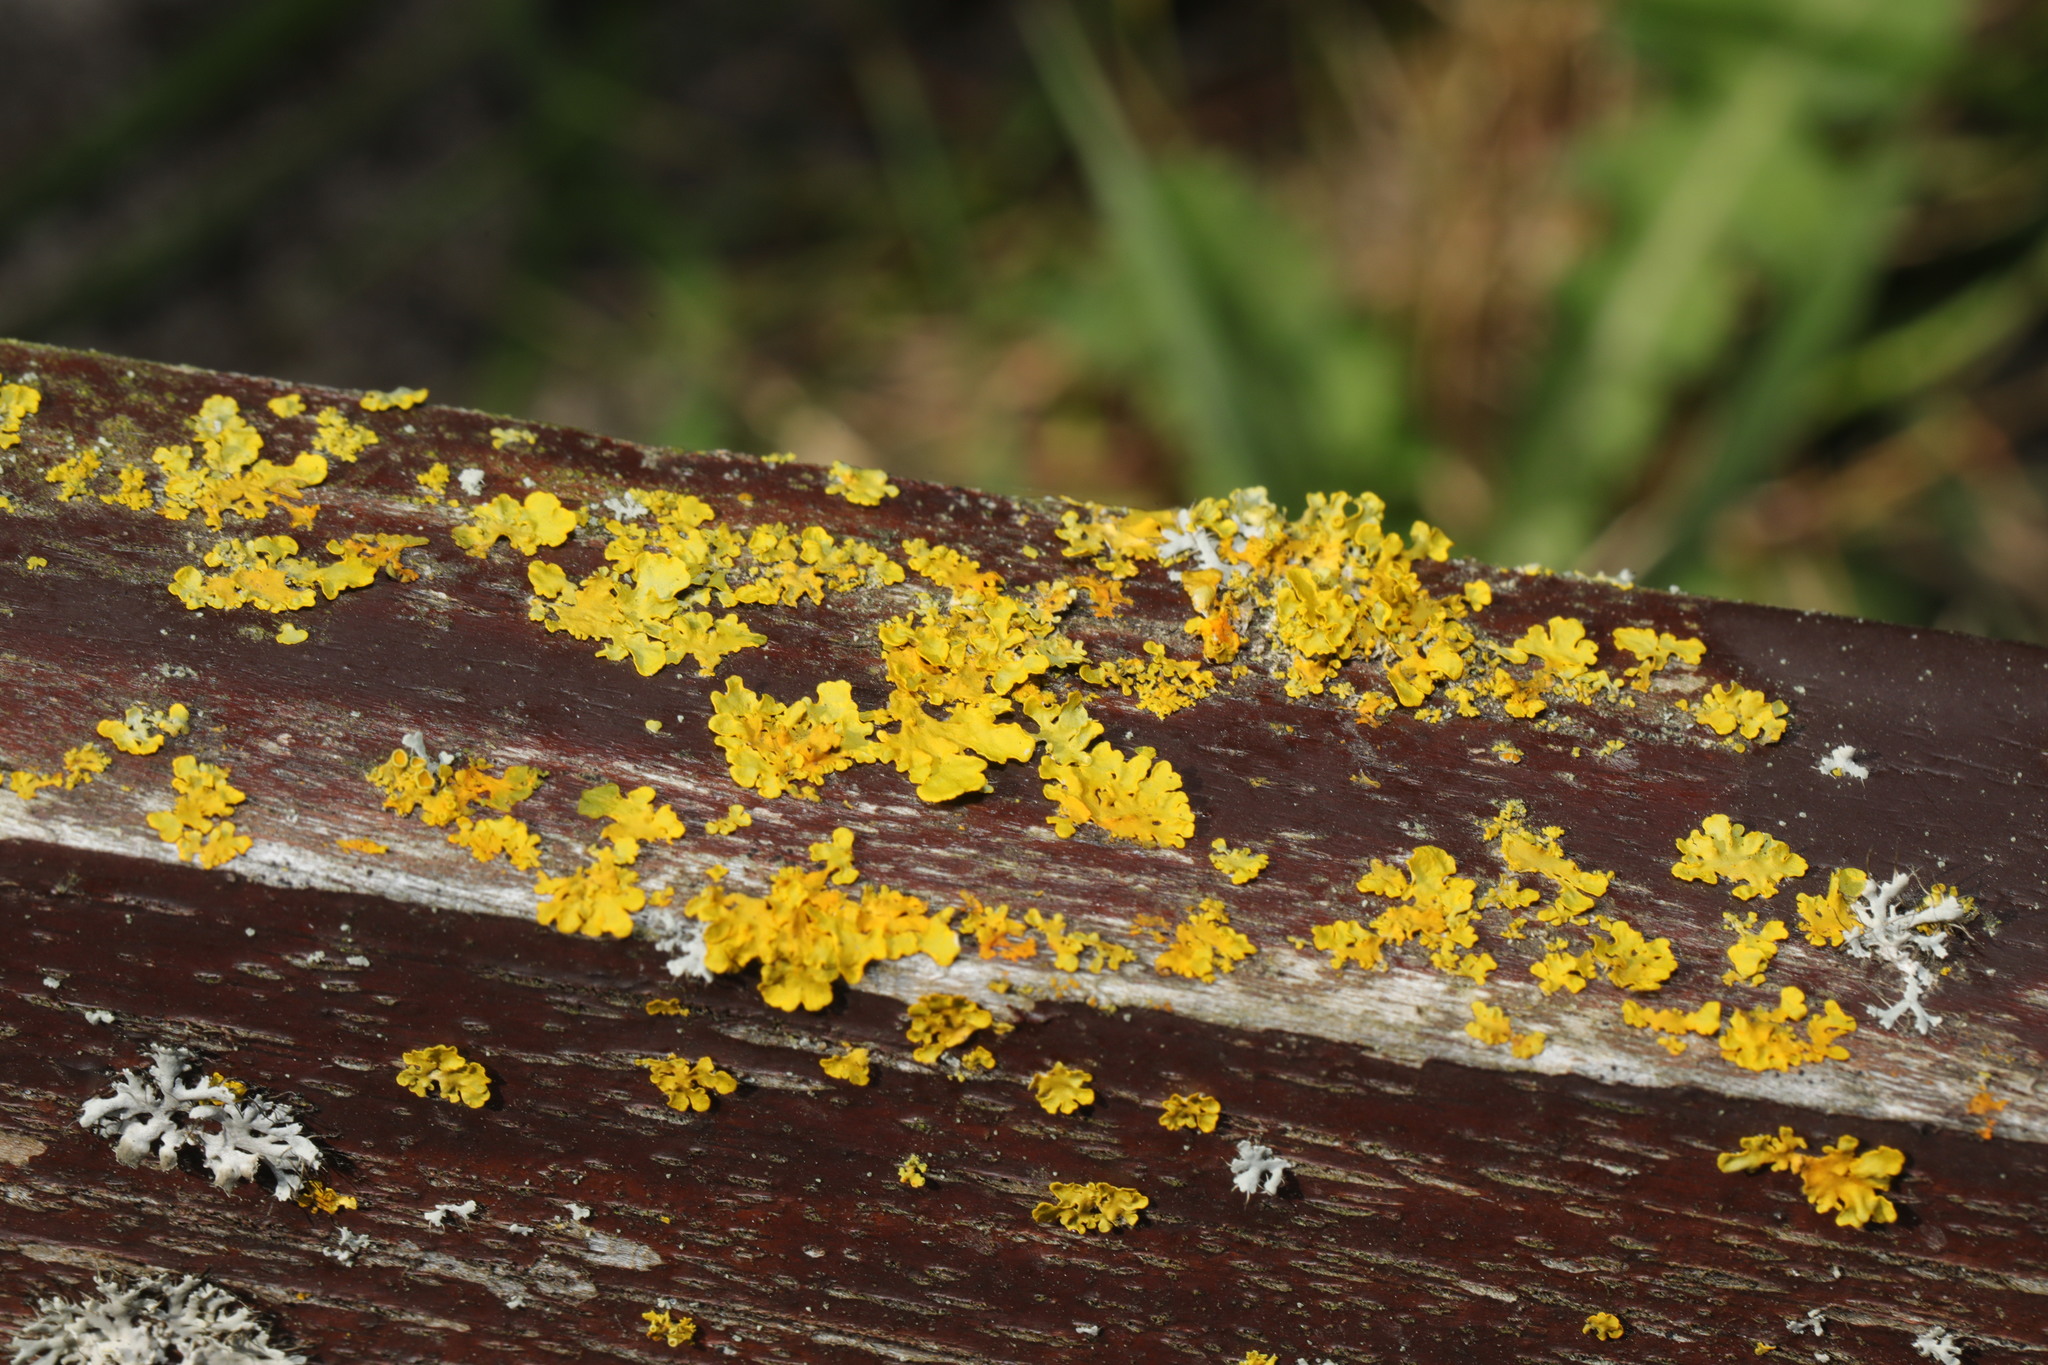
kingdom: Fungi
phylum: Ascomycota
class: Lecanoromycetes
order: Teloschistales
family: Teloschistaceae
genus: Xanthoria
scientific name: Xanthoria parietina
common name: Common orange lichen
